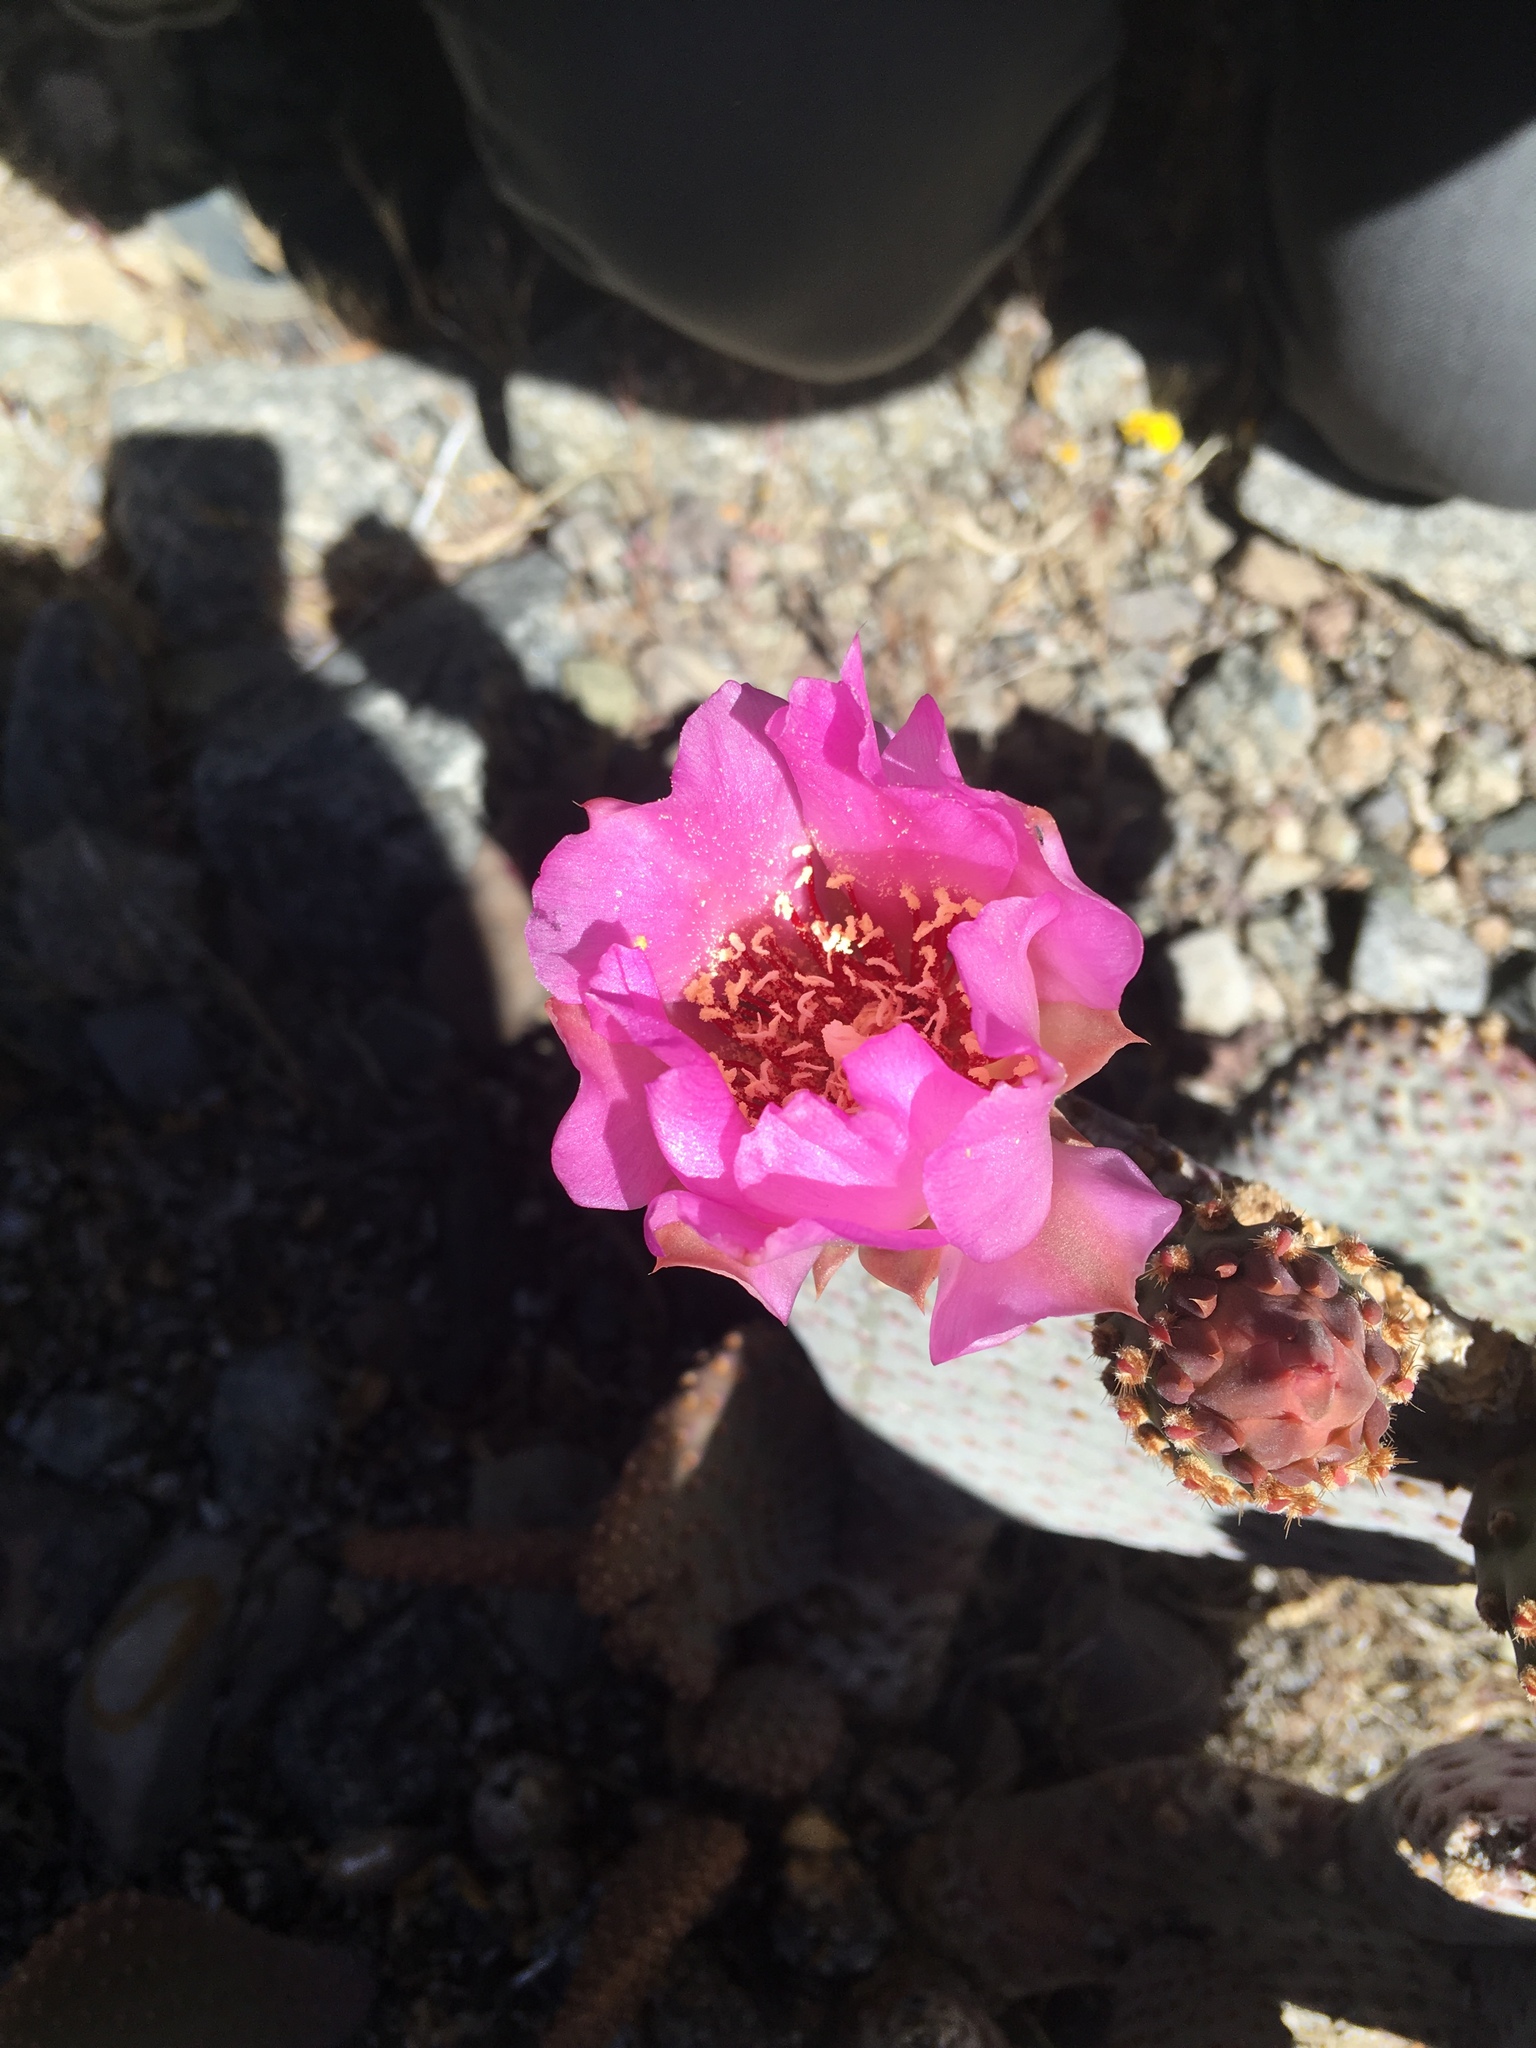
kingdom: Plantae
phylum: Tracheophyta
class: Magnoliopsida
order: Caryophyllales
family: Cactaceae
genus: Opuntia
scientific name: Opuntia basilaris
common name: Beavertail prickly-pear
